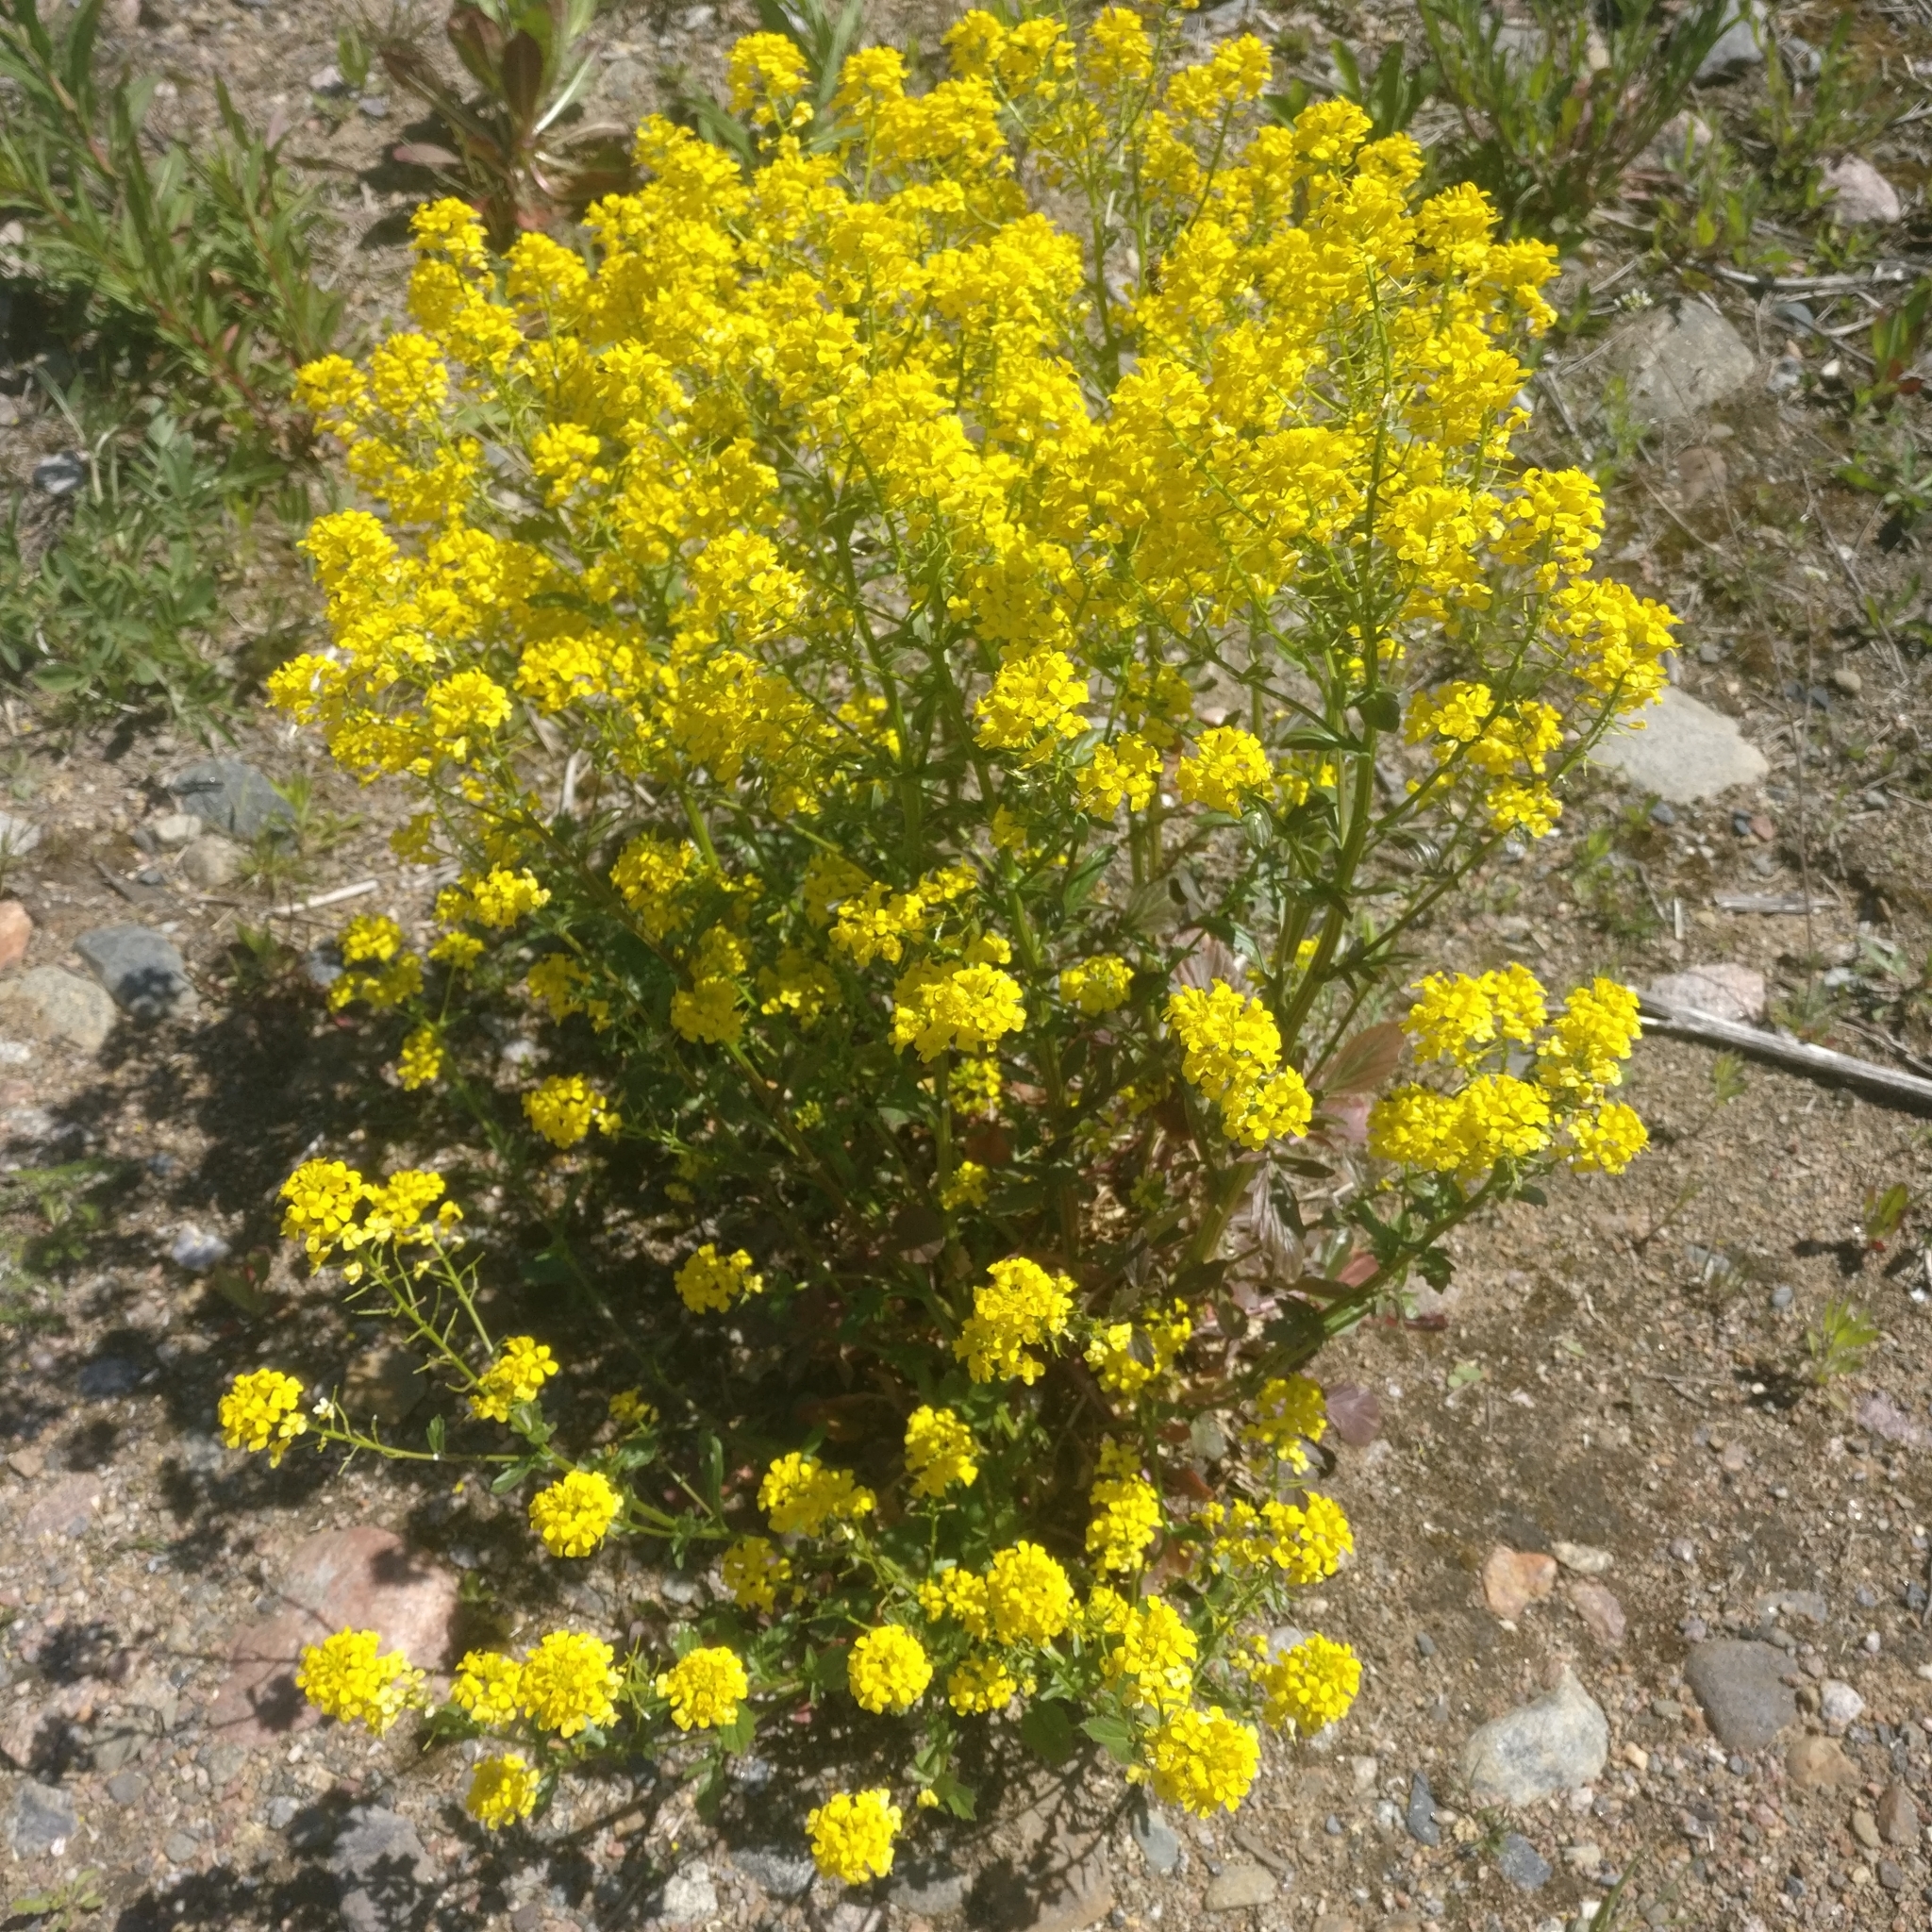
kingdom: Plantae
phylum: Tracheophyta
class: Magnoliopsida
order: Brassicales
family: Brassicaceae
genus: Barbarea
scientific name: Barbarea vulgaris
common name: Cressy-greens
